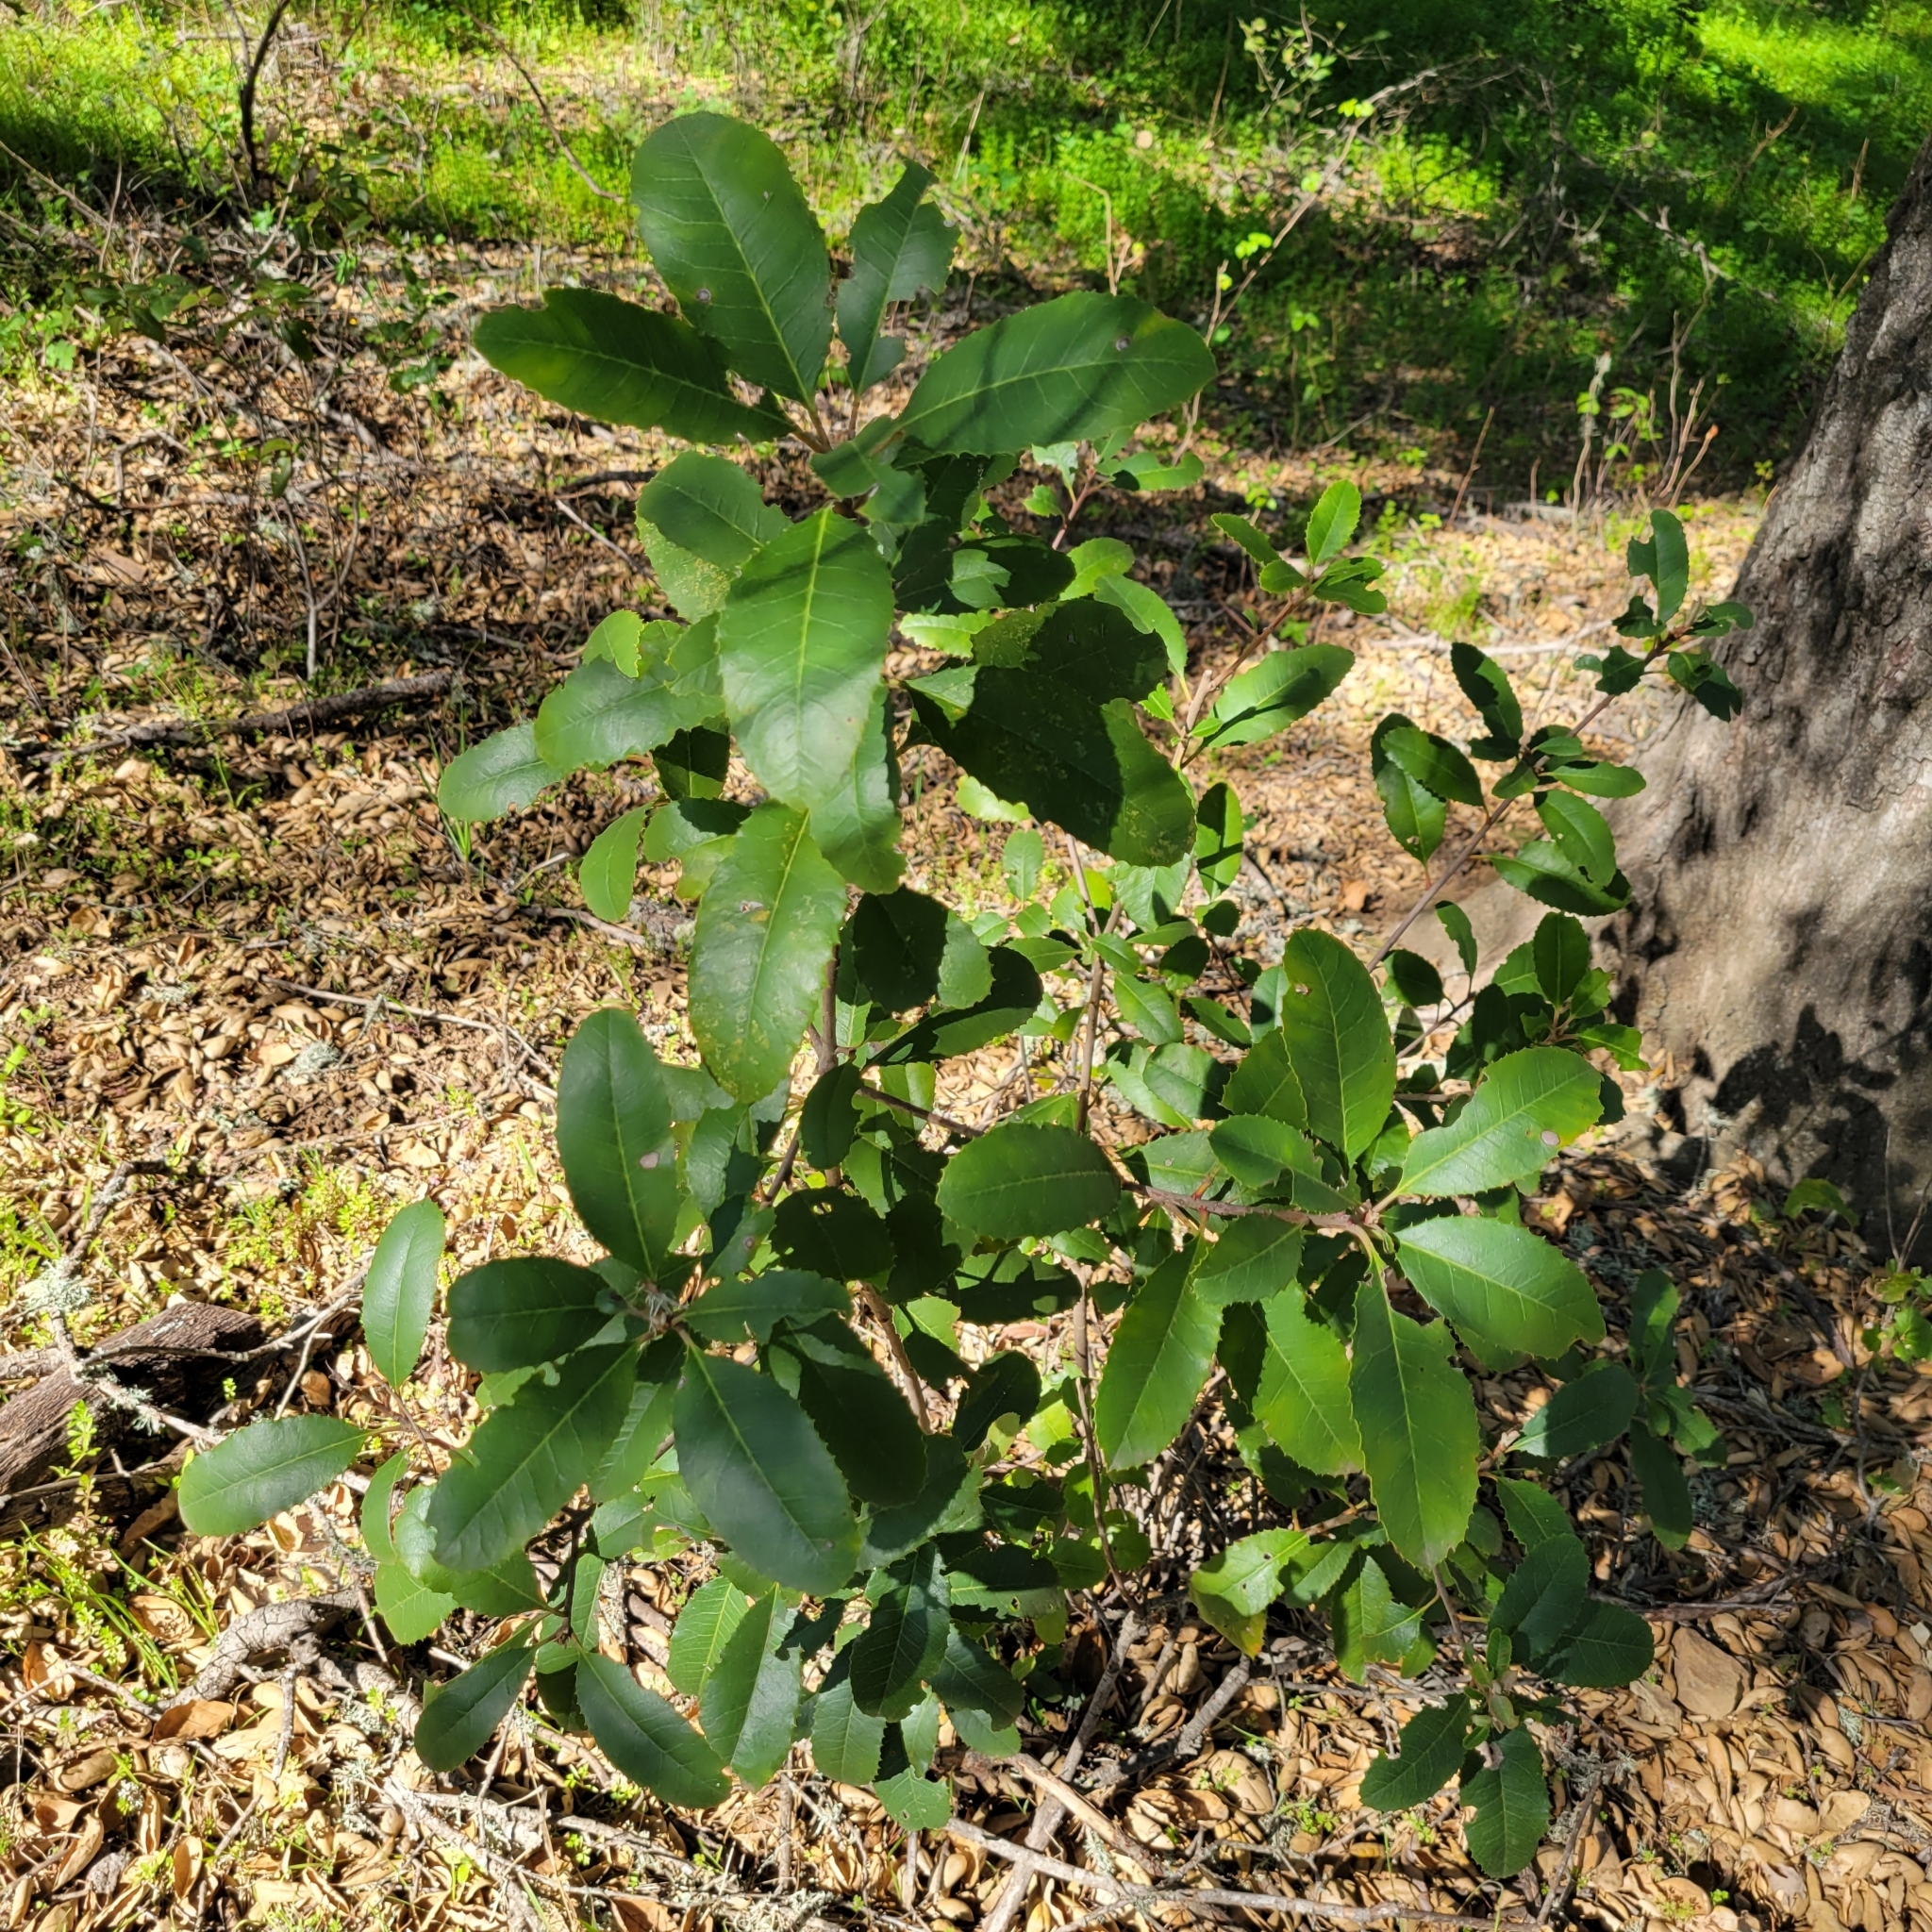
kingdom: Plantae
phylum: Tracheophyta
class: Magnoliopsida
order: Rosales
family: Rosaceae
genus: Heteromeles
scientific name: Heteromeles arbutifolia
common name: California-holly
